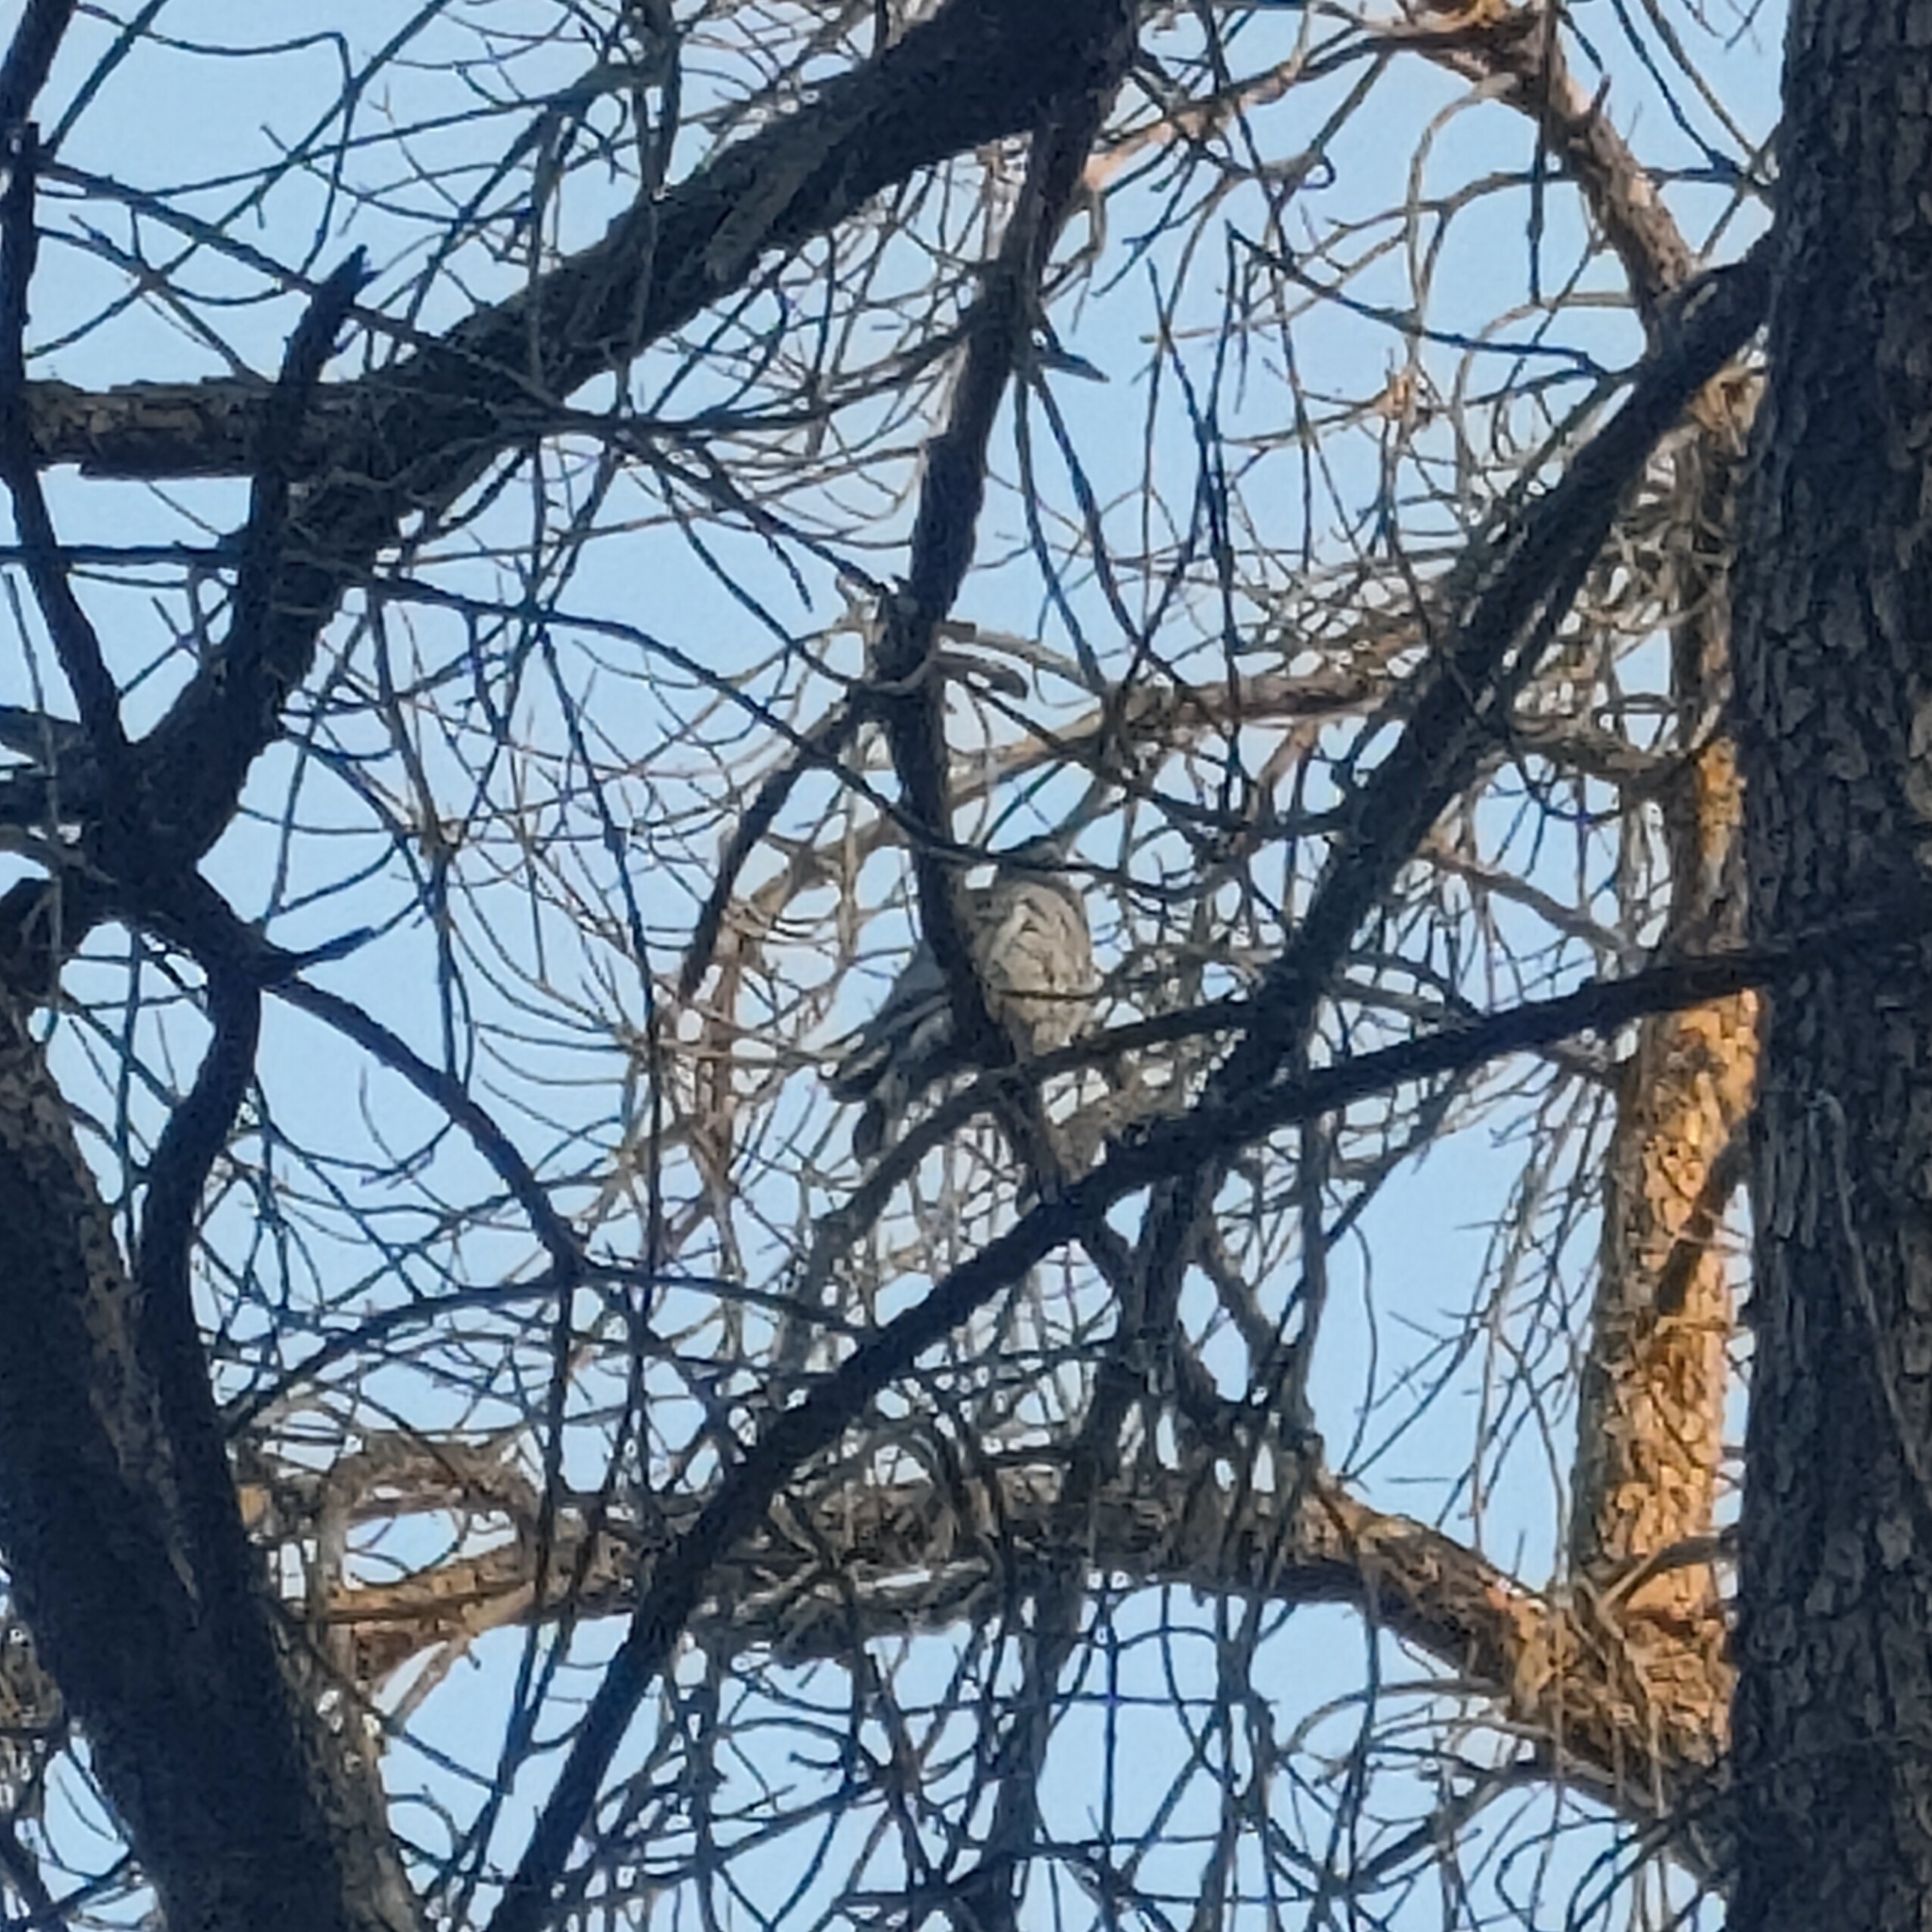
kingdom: Animalia
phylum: Chordata
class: Aves
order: Columbiformes
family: Columbidae
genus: Columba
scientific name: Columba palumbus
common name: Common wood pigeon
